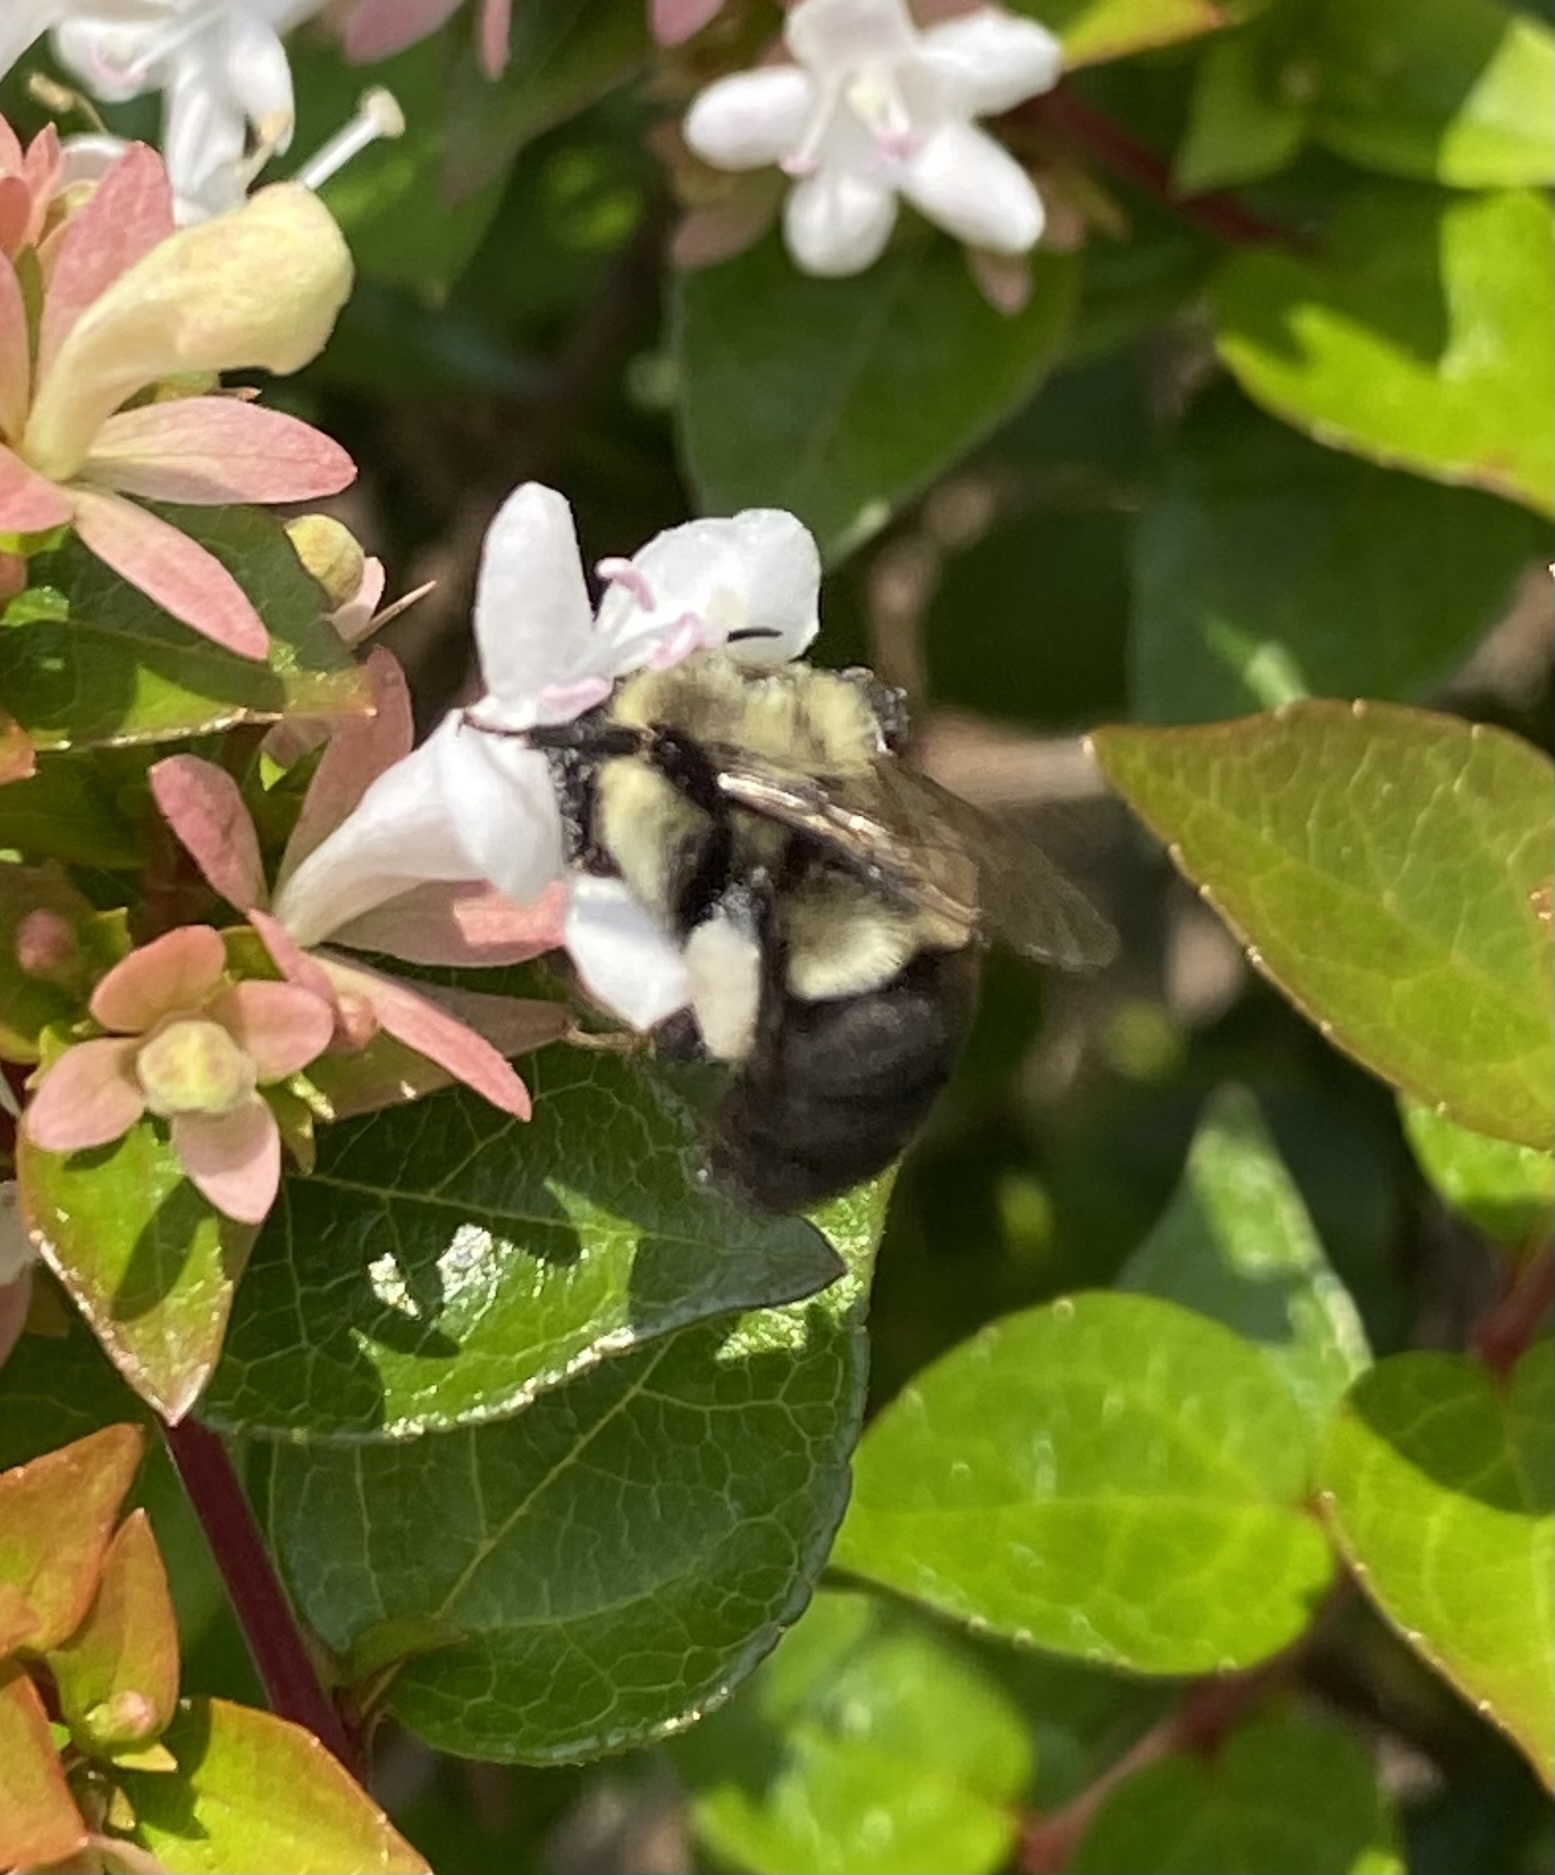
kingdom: Animalia
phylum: Arthropoda
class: Insecta
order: Hymenoptera
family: Apidae
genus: Bombus
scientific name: Bombus impatiens
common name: Common eastern bumble bee
